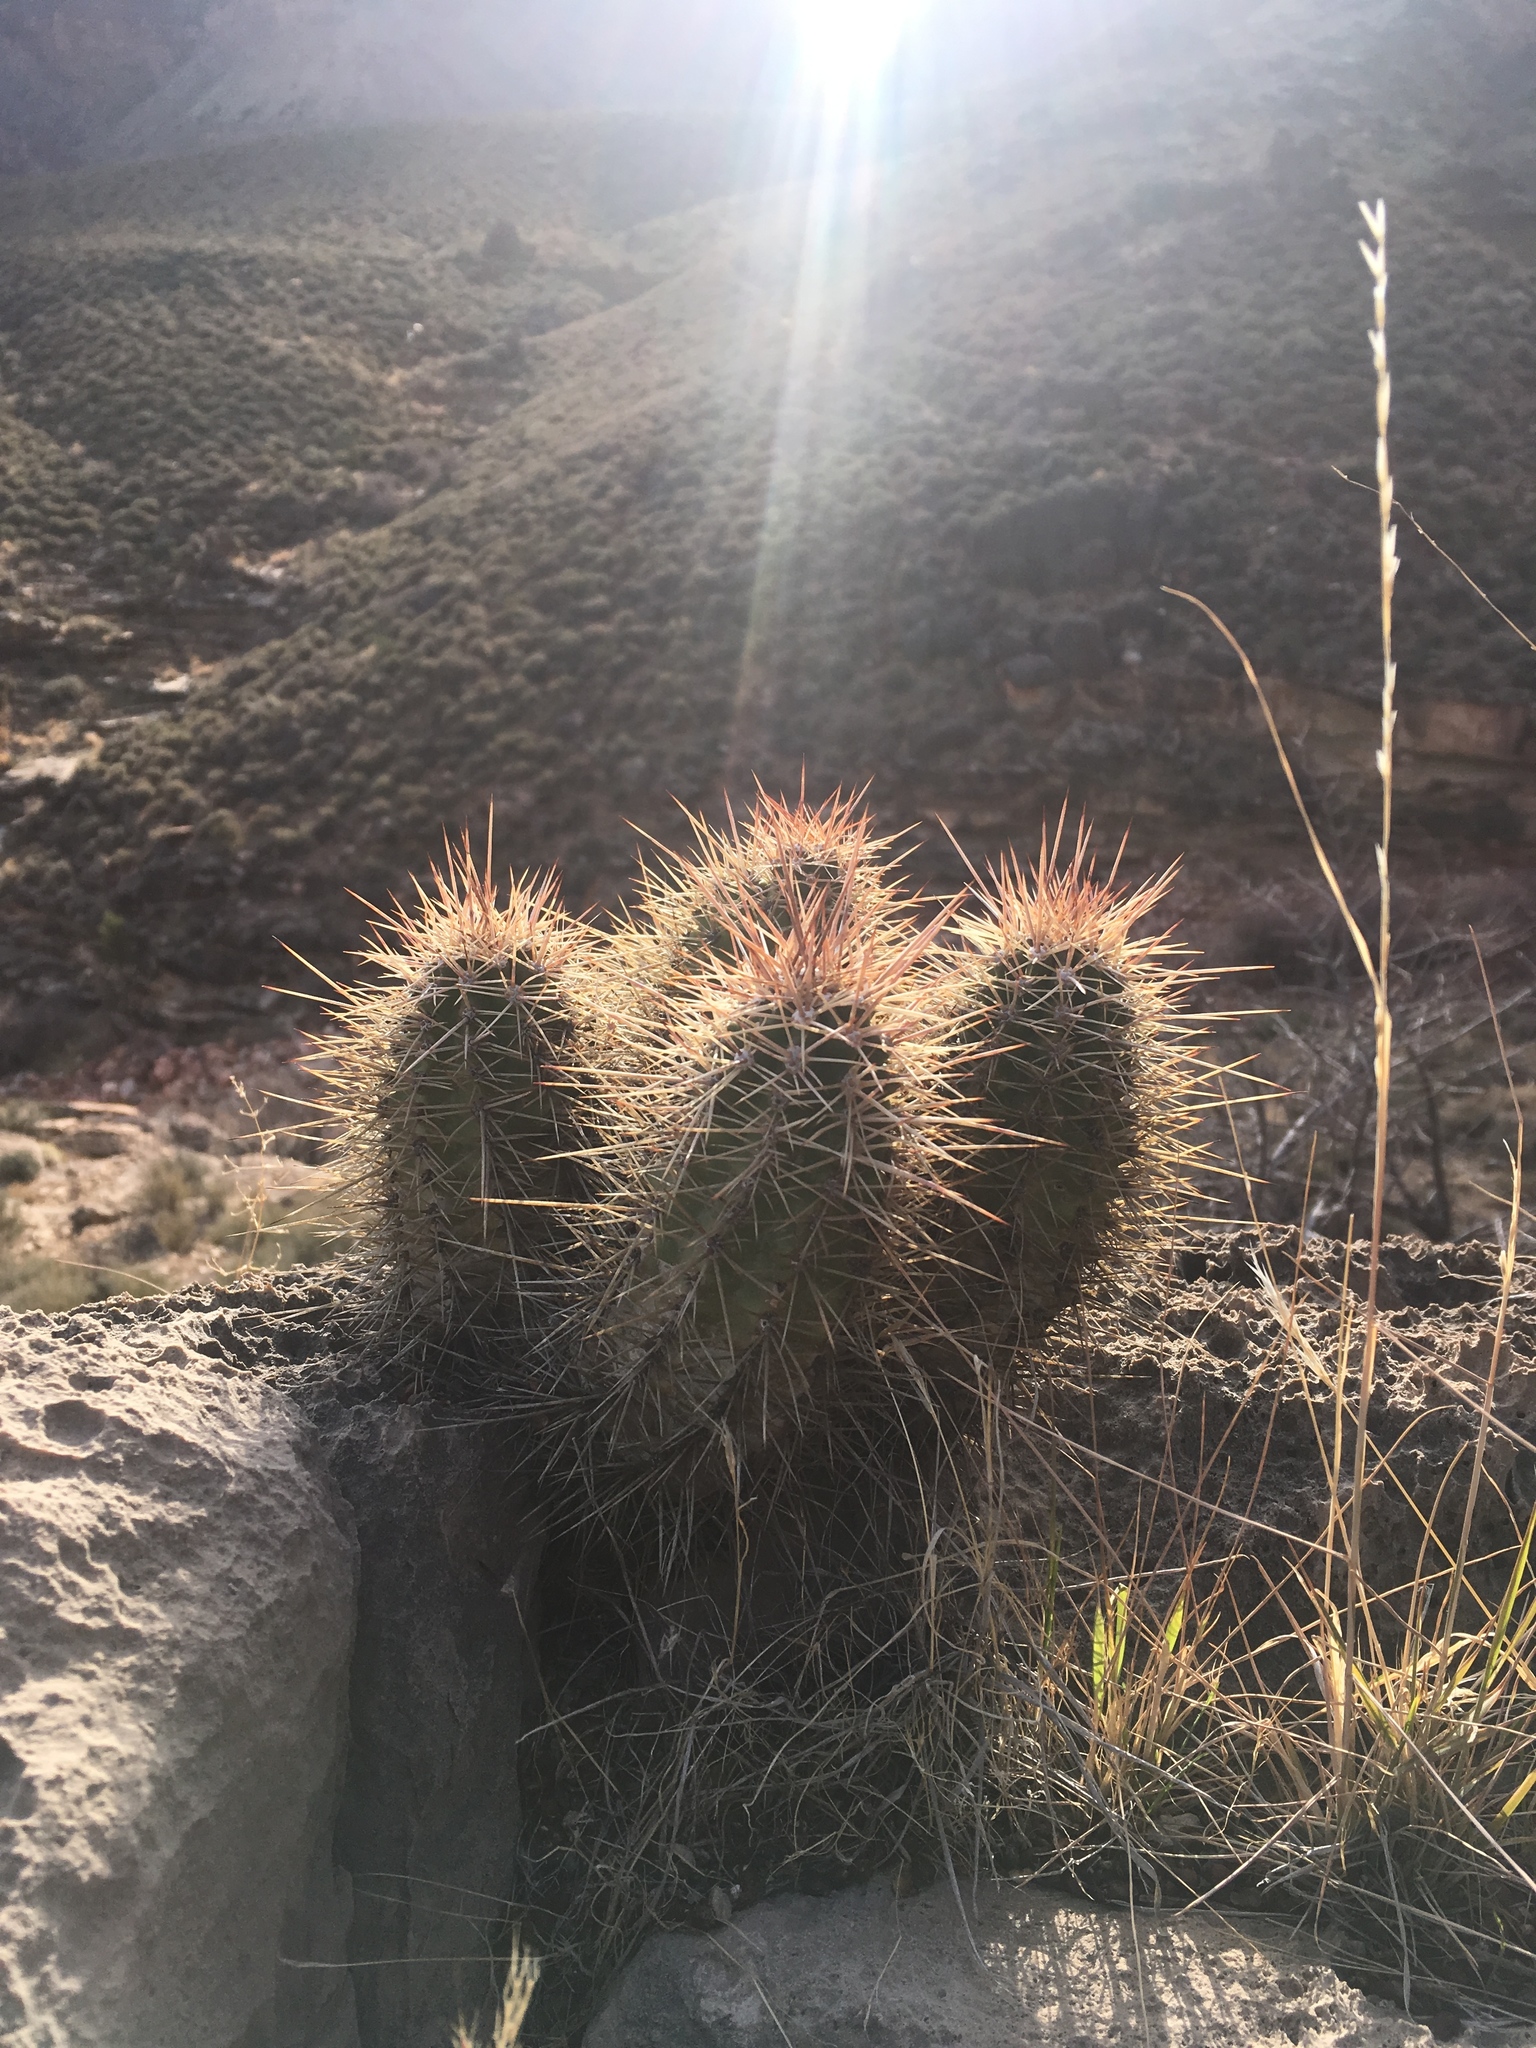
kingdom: Plantae
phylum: Tracheophyta
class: Magnoliopsida
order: Caryophyllales
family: Cactaceae
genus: Echinocereus
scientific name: Echinocereus triglochidiatus
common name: Claretcup hedgehog
